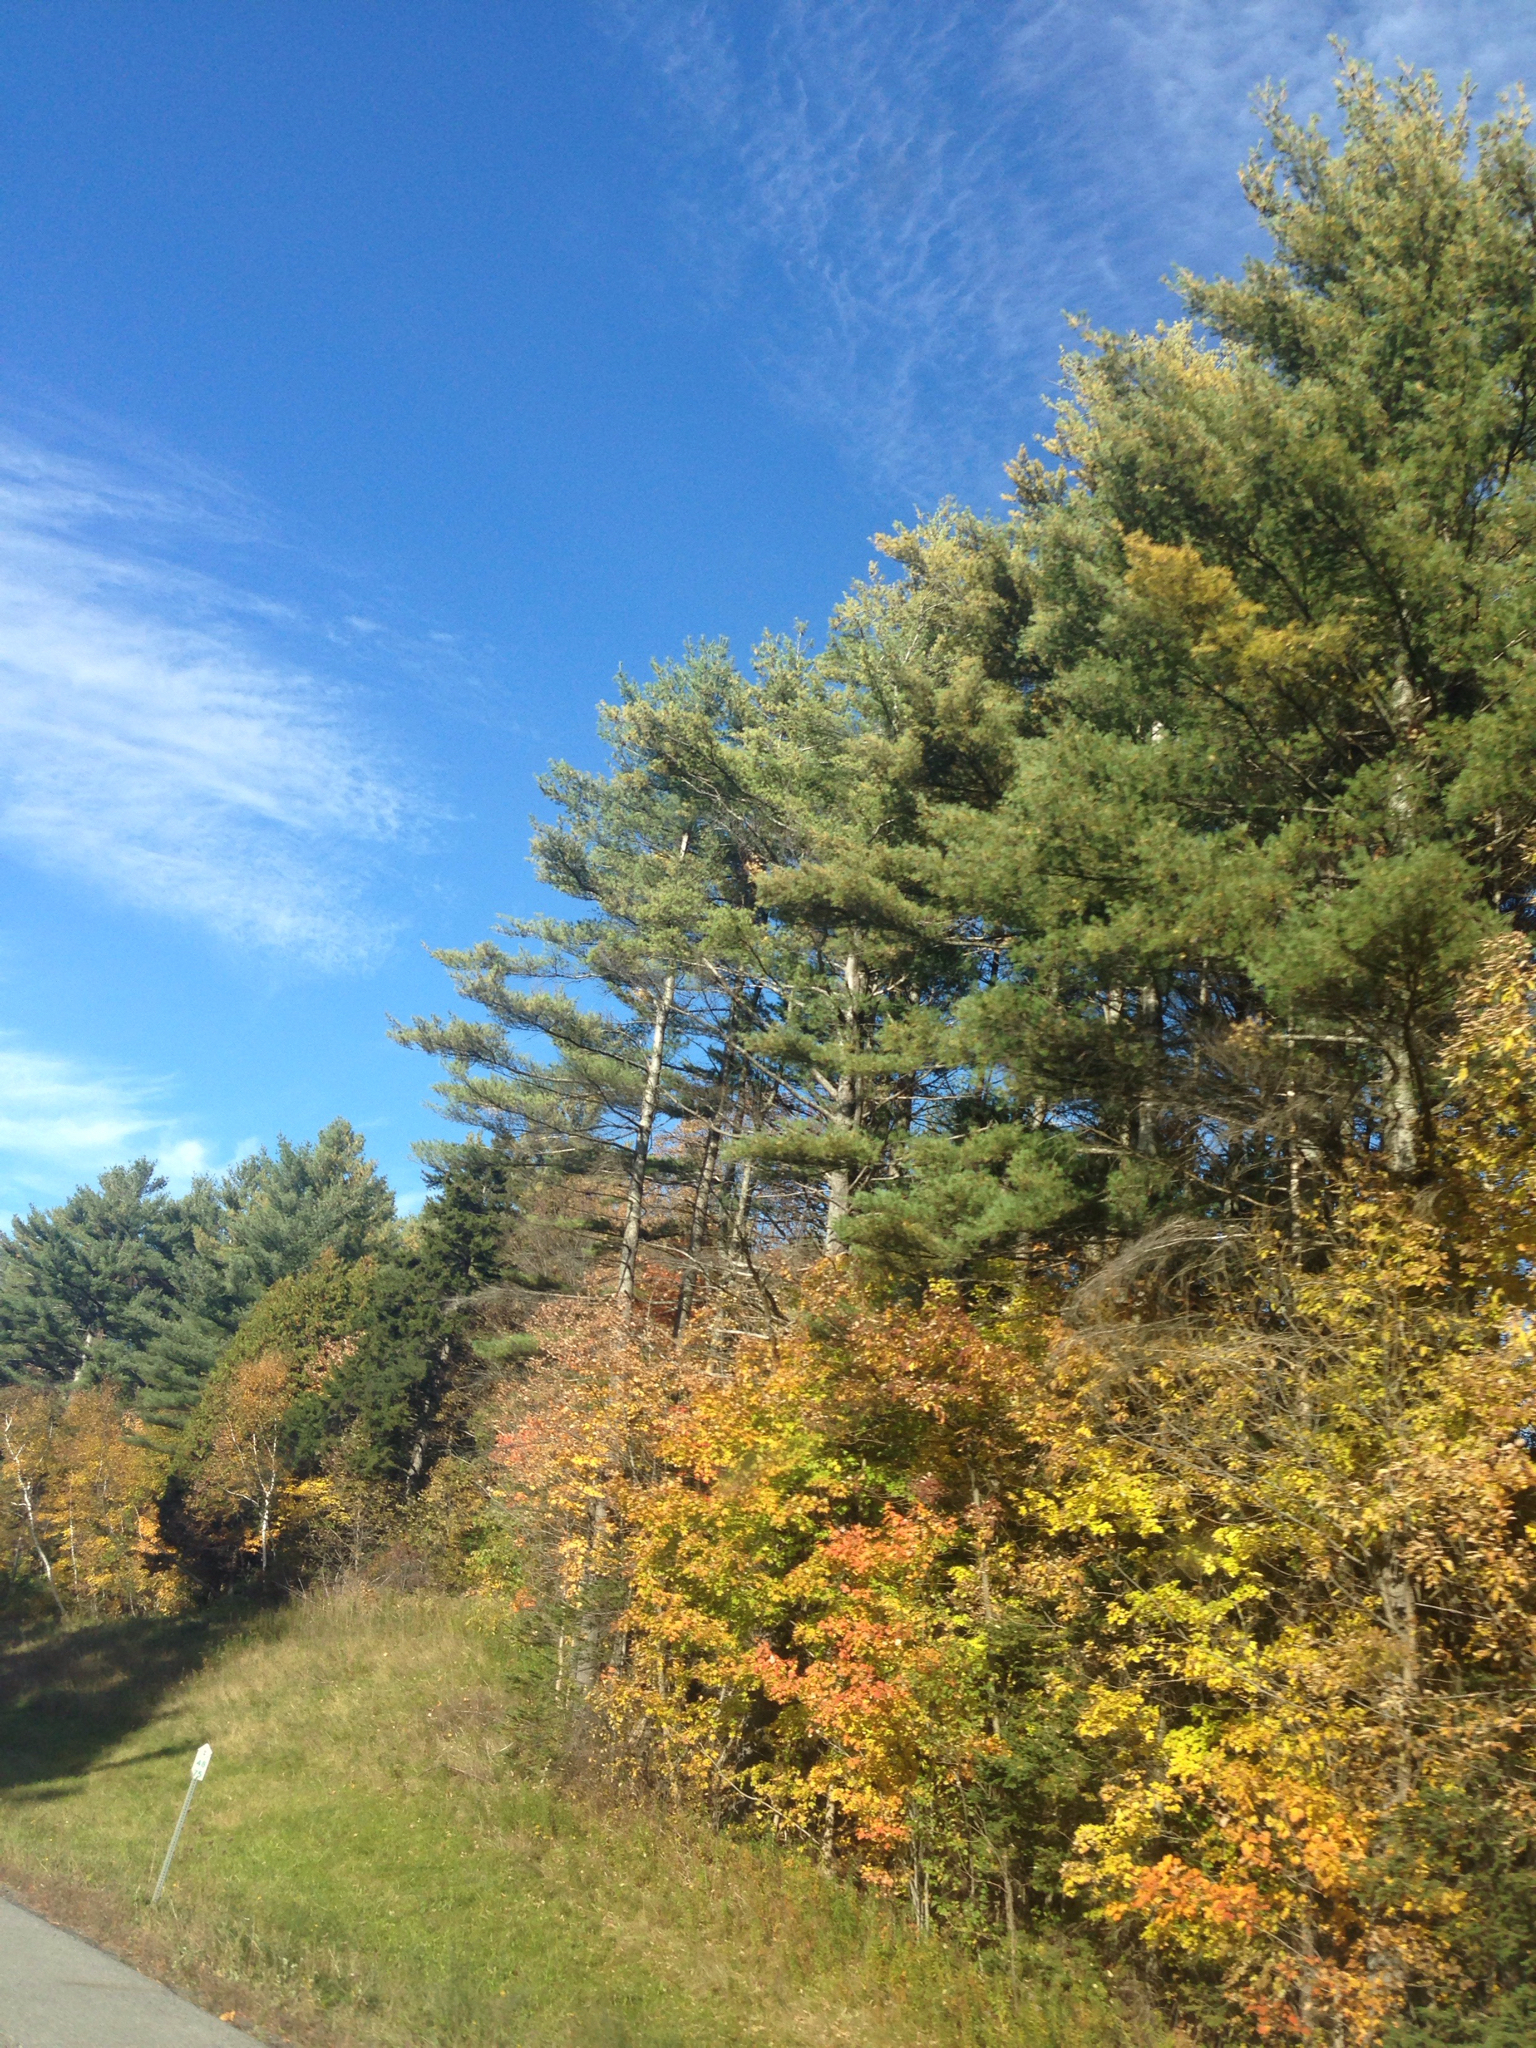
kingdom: Plantae
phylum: Tracheophyta
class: Pinopsida
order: Pinales
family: Pinaceae
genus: Pinus
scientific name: Pinus strobus
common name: Weymouth pine
